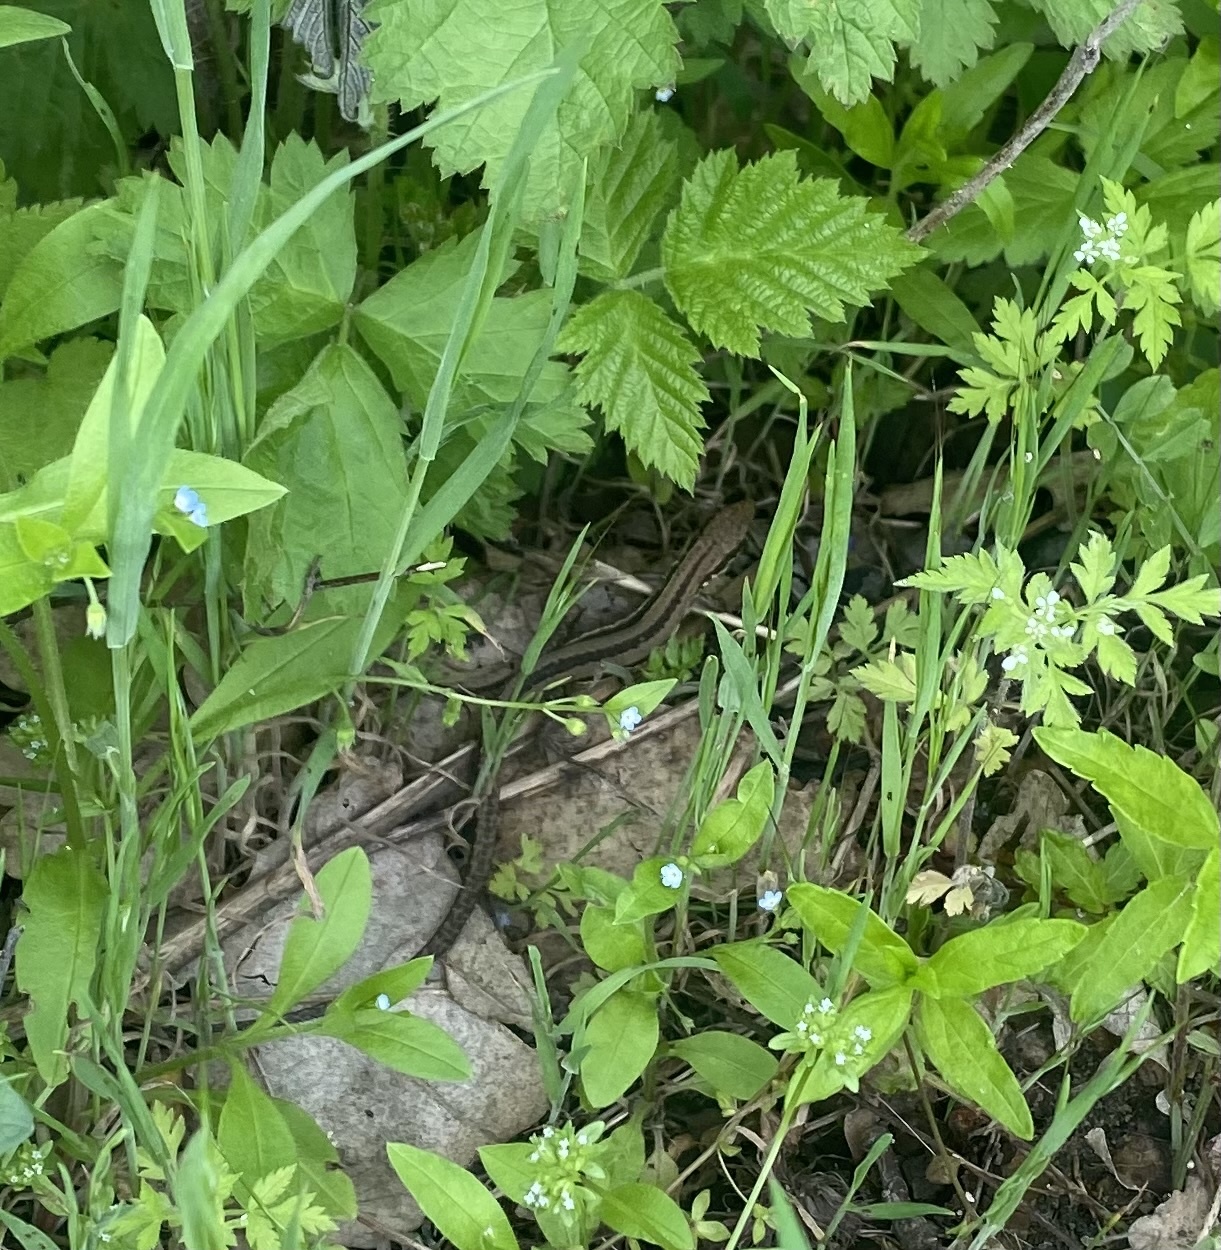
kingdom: Plantae
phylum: Tracheophyta
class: Magnoliopsida
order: Boraginales
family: Boraginaceae
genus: Myosotis
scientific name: Myosotis sparsiflora
